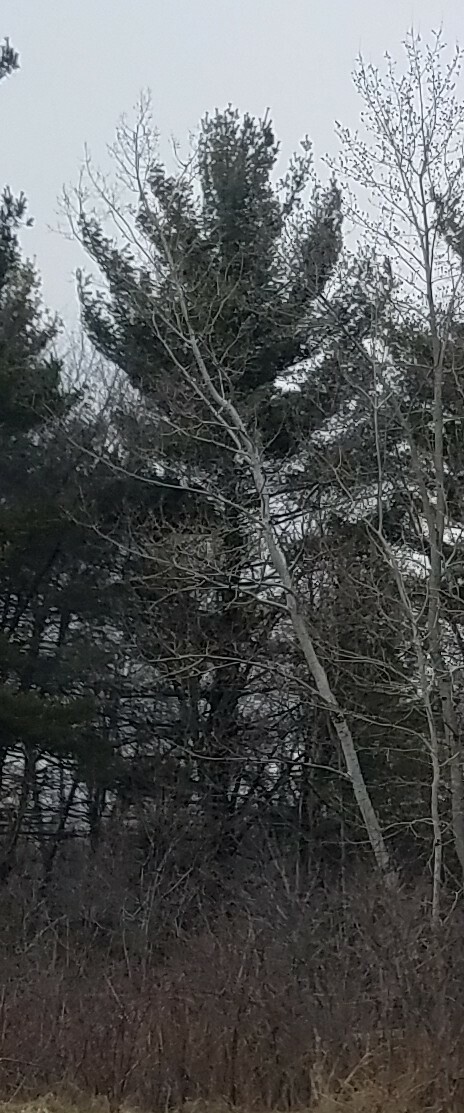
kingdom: Plantae
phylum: Tracheophyta
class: Pinopsida
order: Pinales
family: Pinaceae
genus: Pinus
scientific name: Pinus strobus
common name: Weymouth pine
